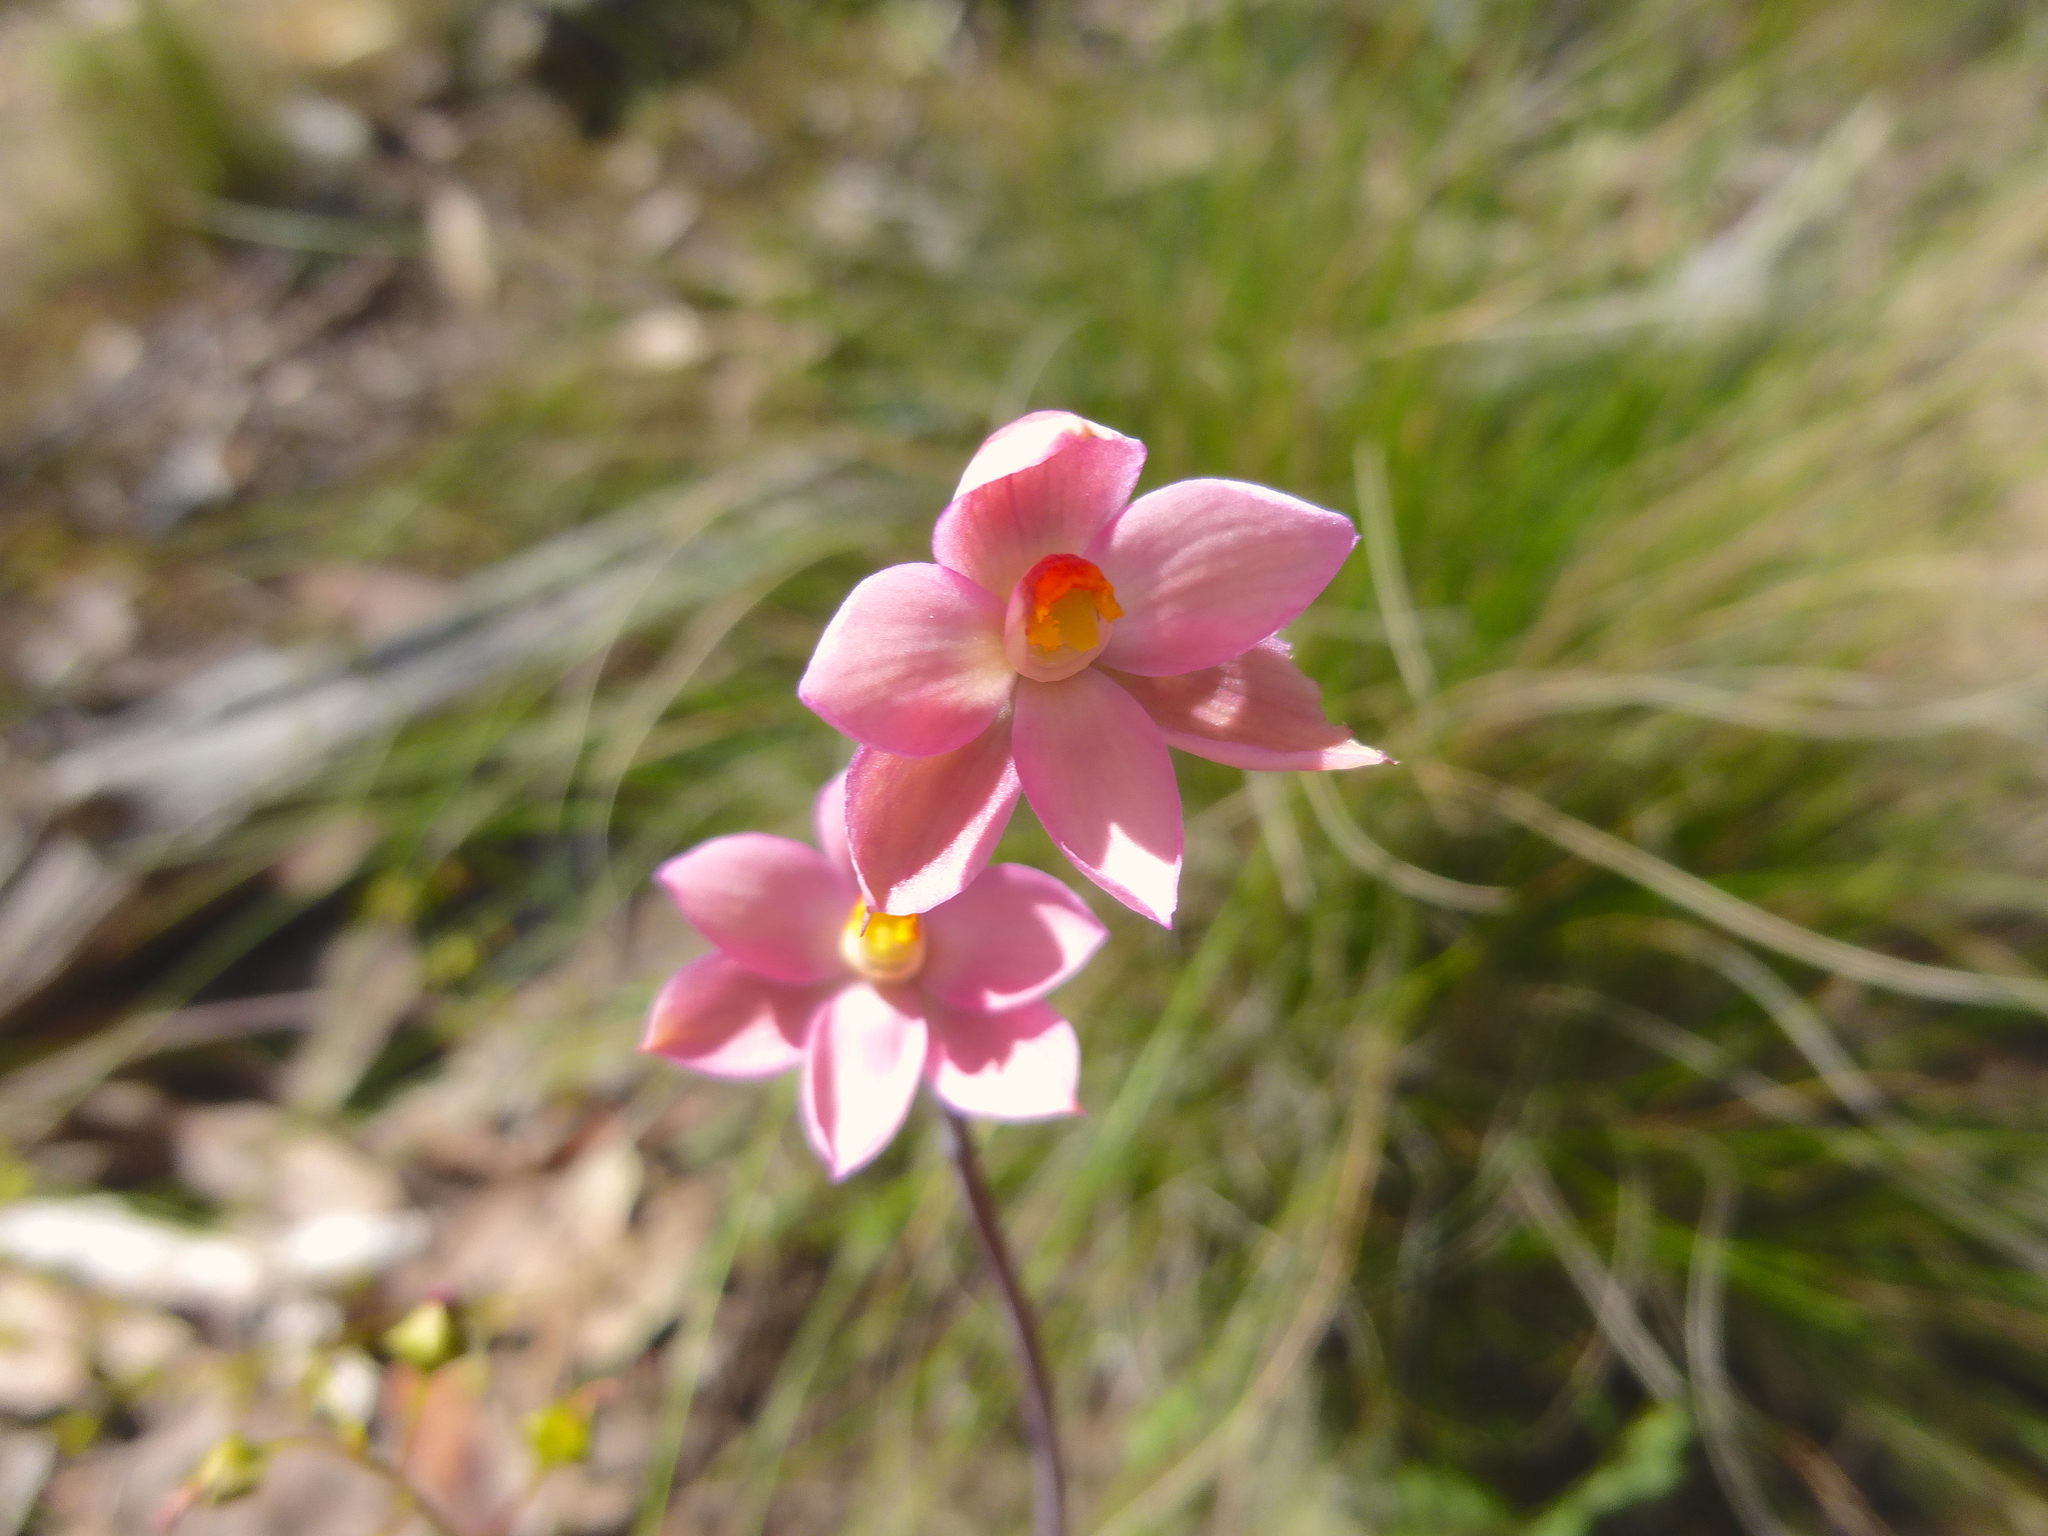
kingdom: Plantae
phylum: Tracheophyta
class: Liliopsida
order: Asparagales
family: Orchidaceae
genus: Thelymitra
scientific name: Thelymitra rubra
